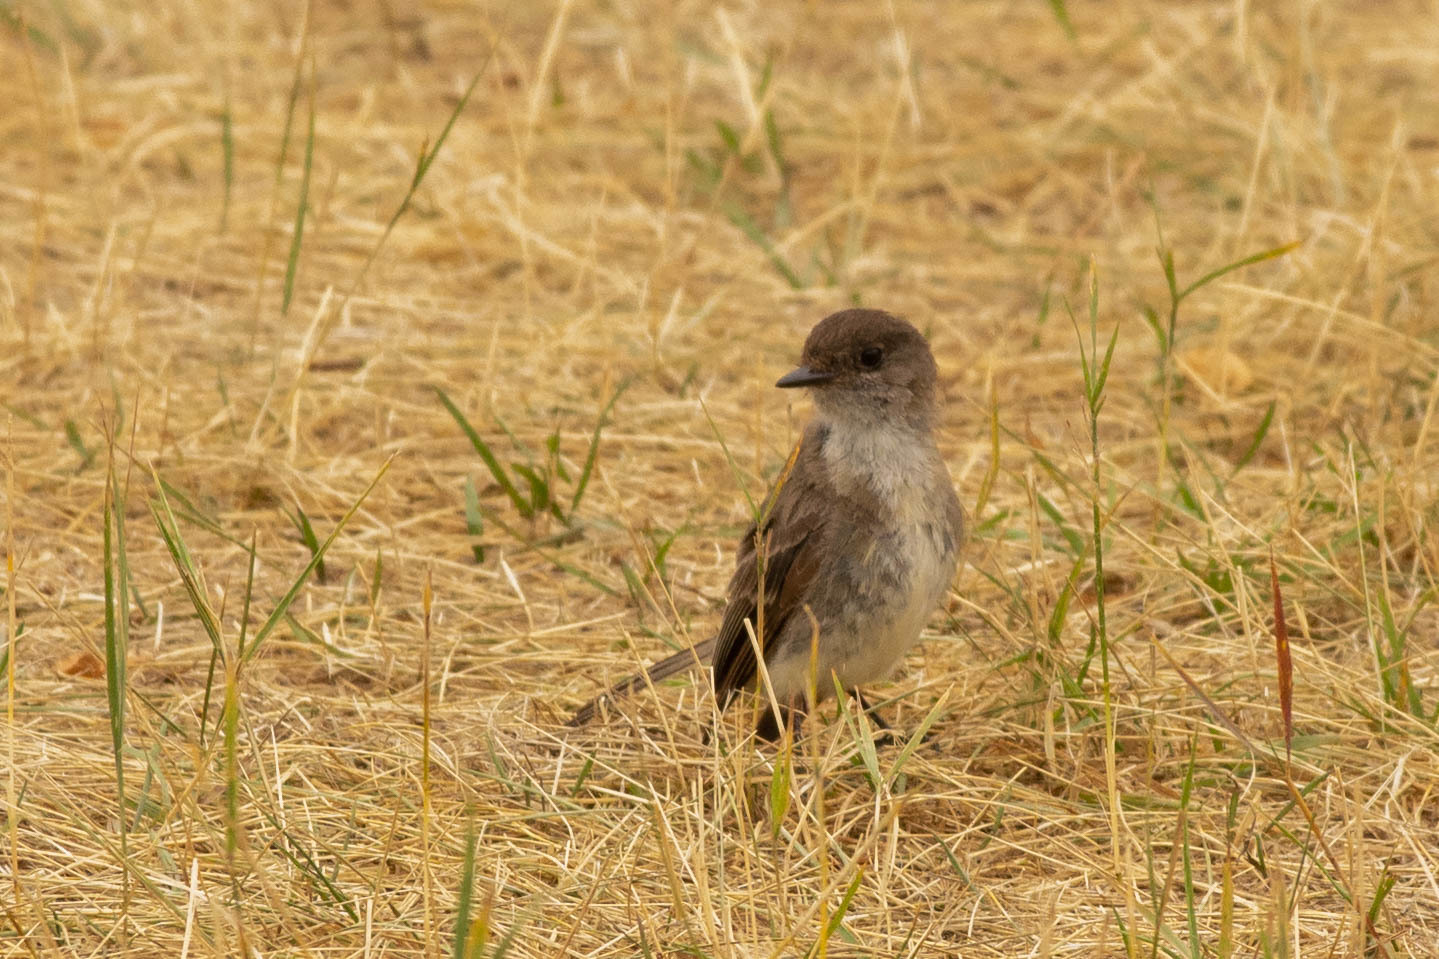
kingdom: Animalia
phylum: Chordata
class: Aves
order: Passeriformes
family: Tyrannidae
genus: Sayornis
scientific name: Sayornis phoebe
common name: Eastern phoebe
